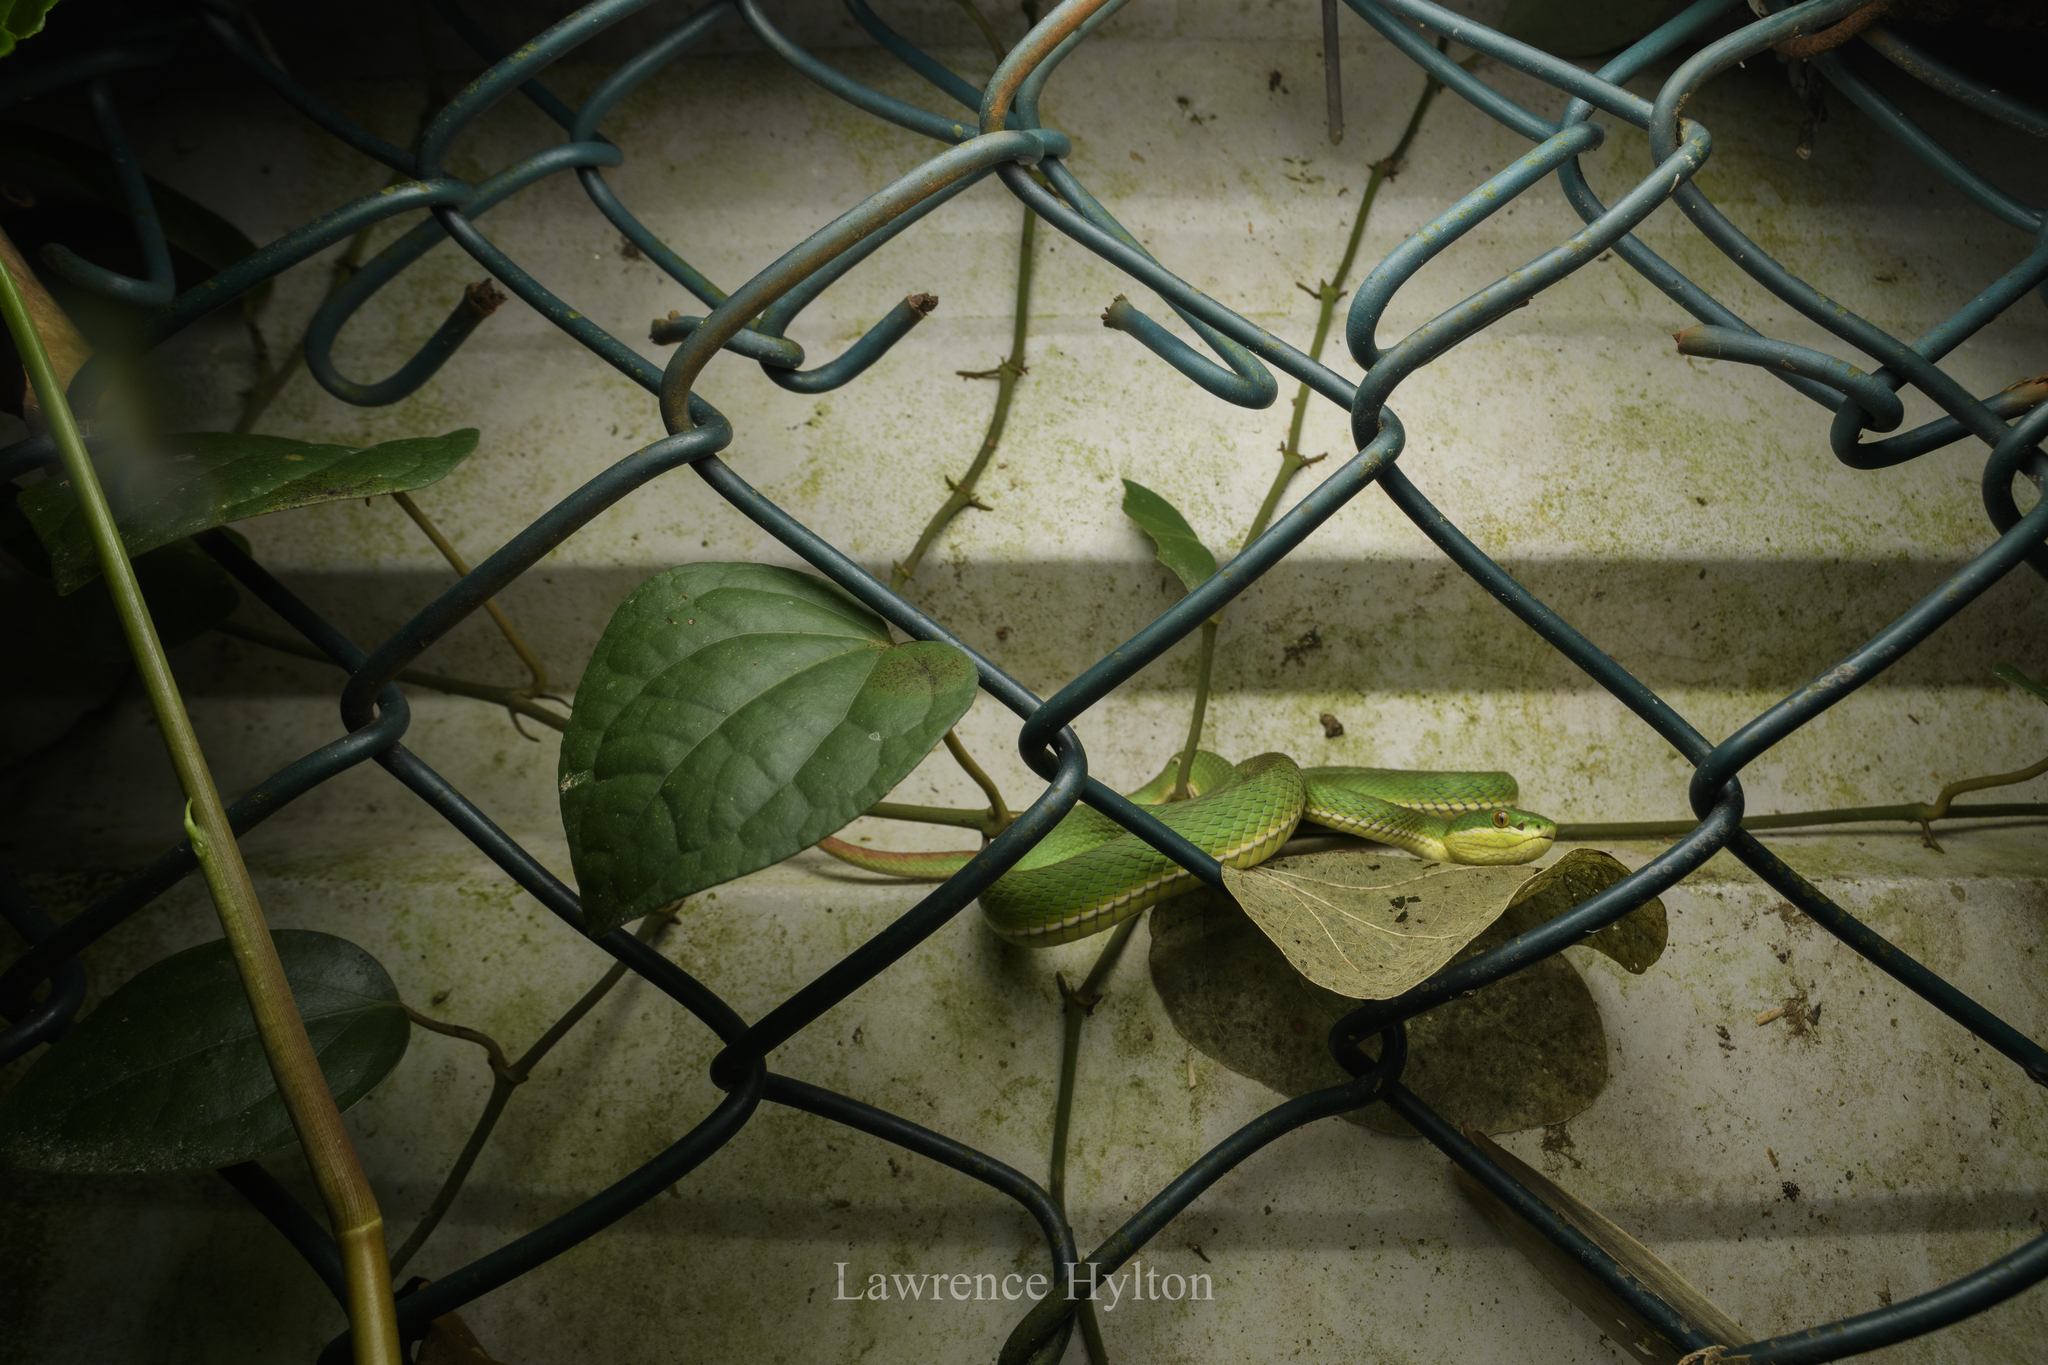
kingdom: Animalia
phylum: Chordata
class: Squamata
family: Viperidae
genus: Trimeresurus
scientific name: Trimeresurus albolabris
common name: White-lipped pitviper
